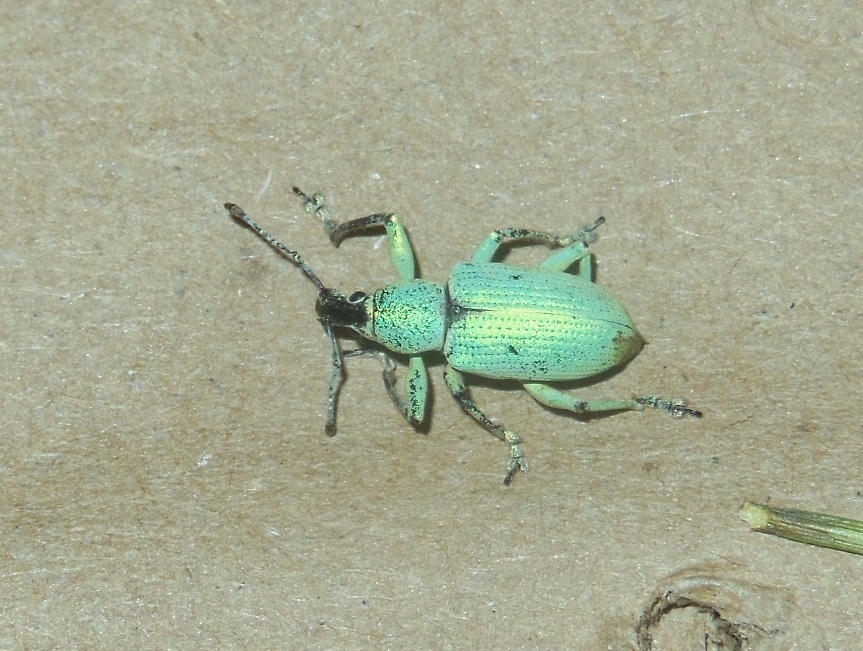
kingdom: Animalia
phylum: Arthropoda
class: Insecta
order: Coleoptera
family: Curculionidae
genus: Exophthalmus
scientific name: Exophthalmus agrestis
